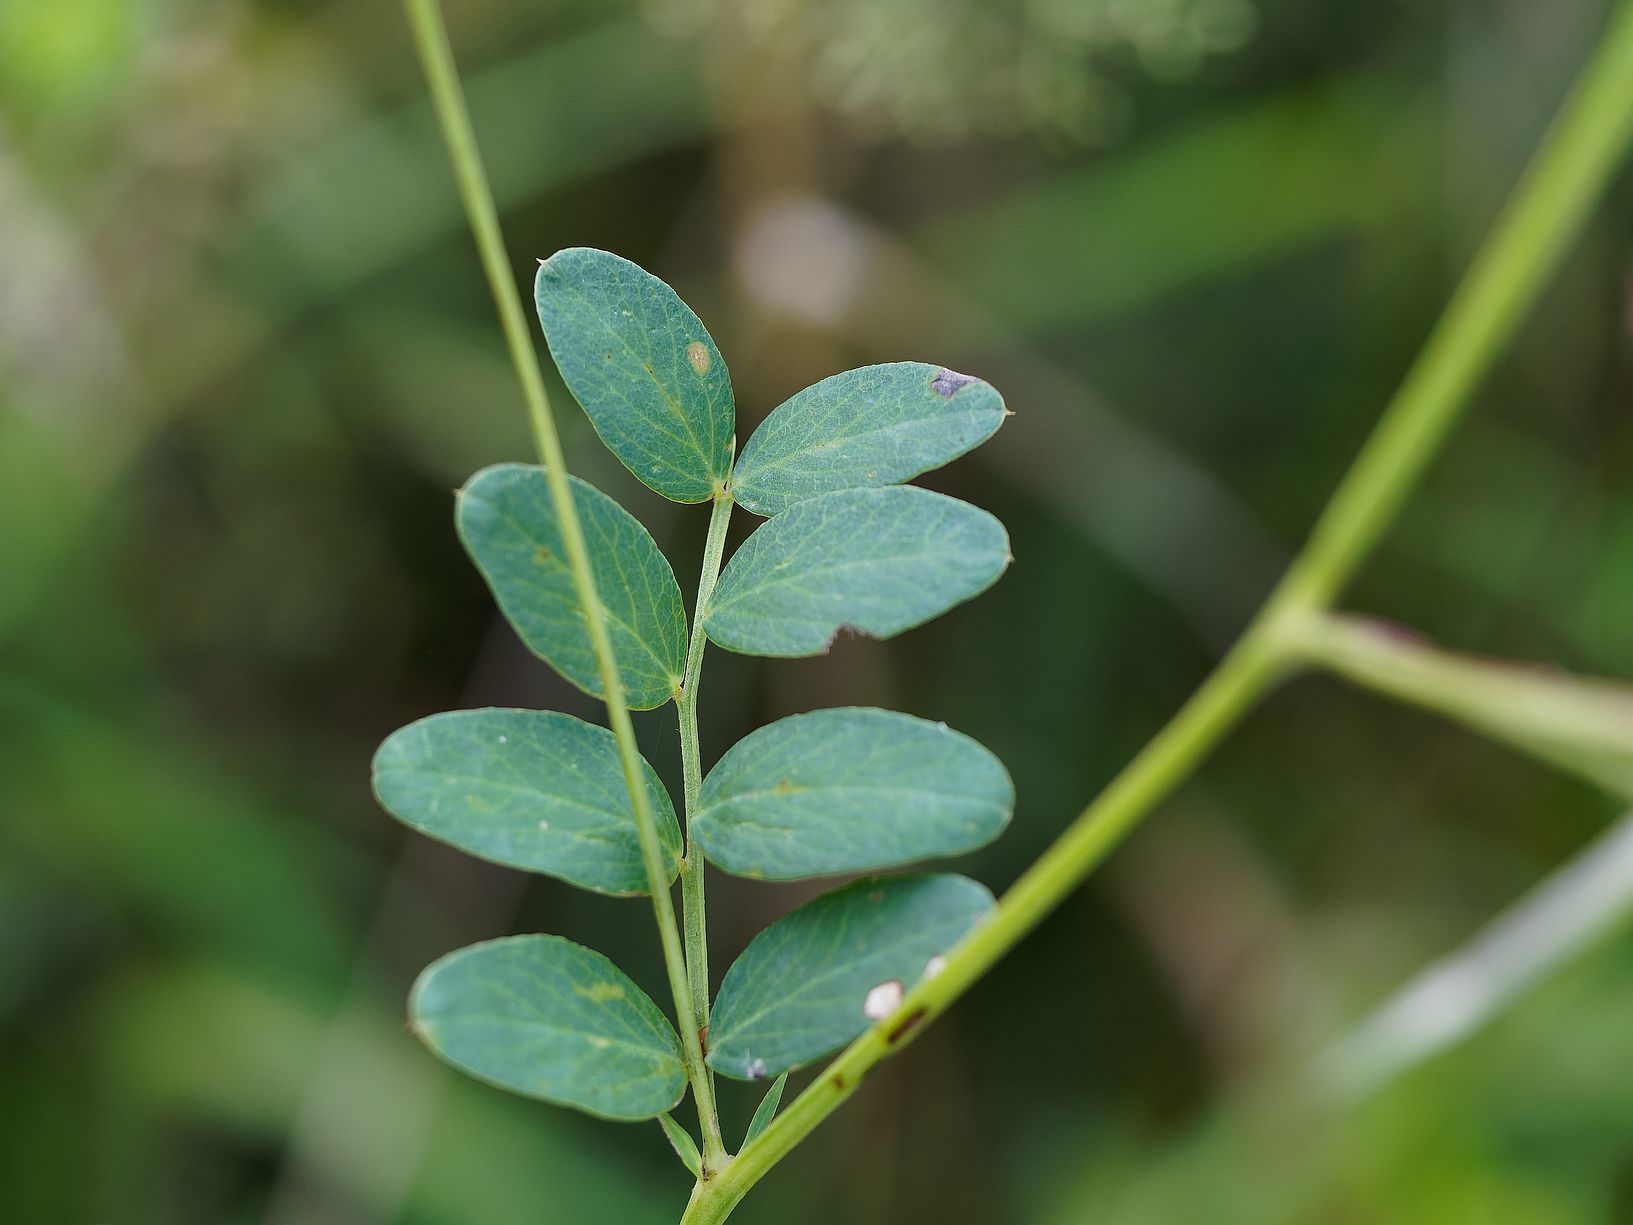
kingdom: Plantae
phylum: Tracheophyta
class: Magnoliopsida
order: Fabales
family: Fabaceae
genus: Lathyrus
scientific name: Lathyrus niger
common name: Black pea
